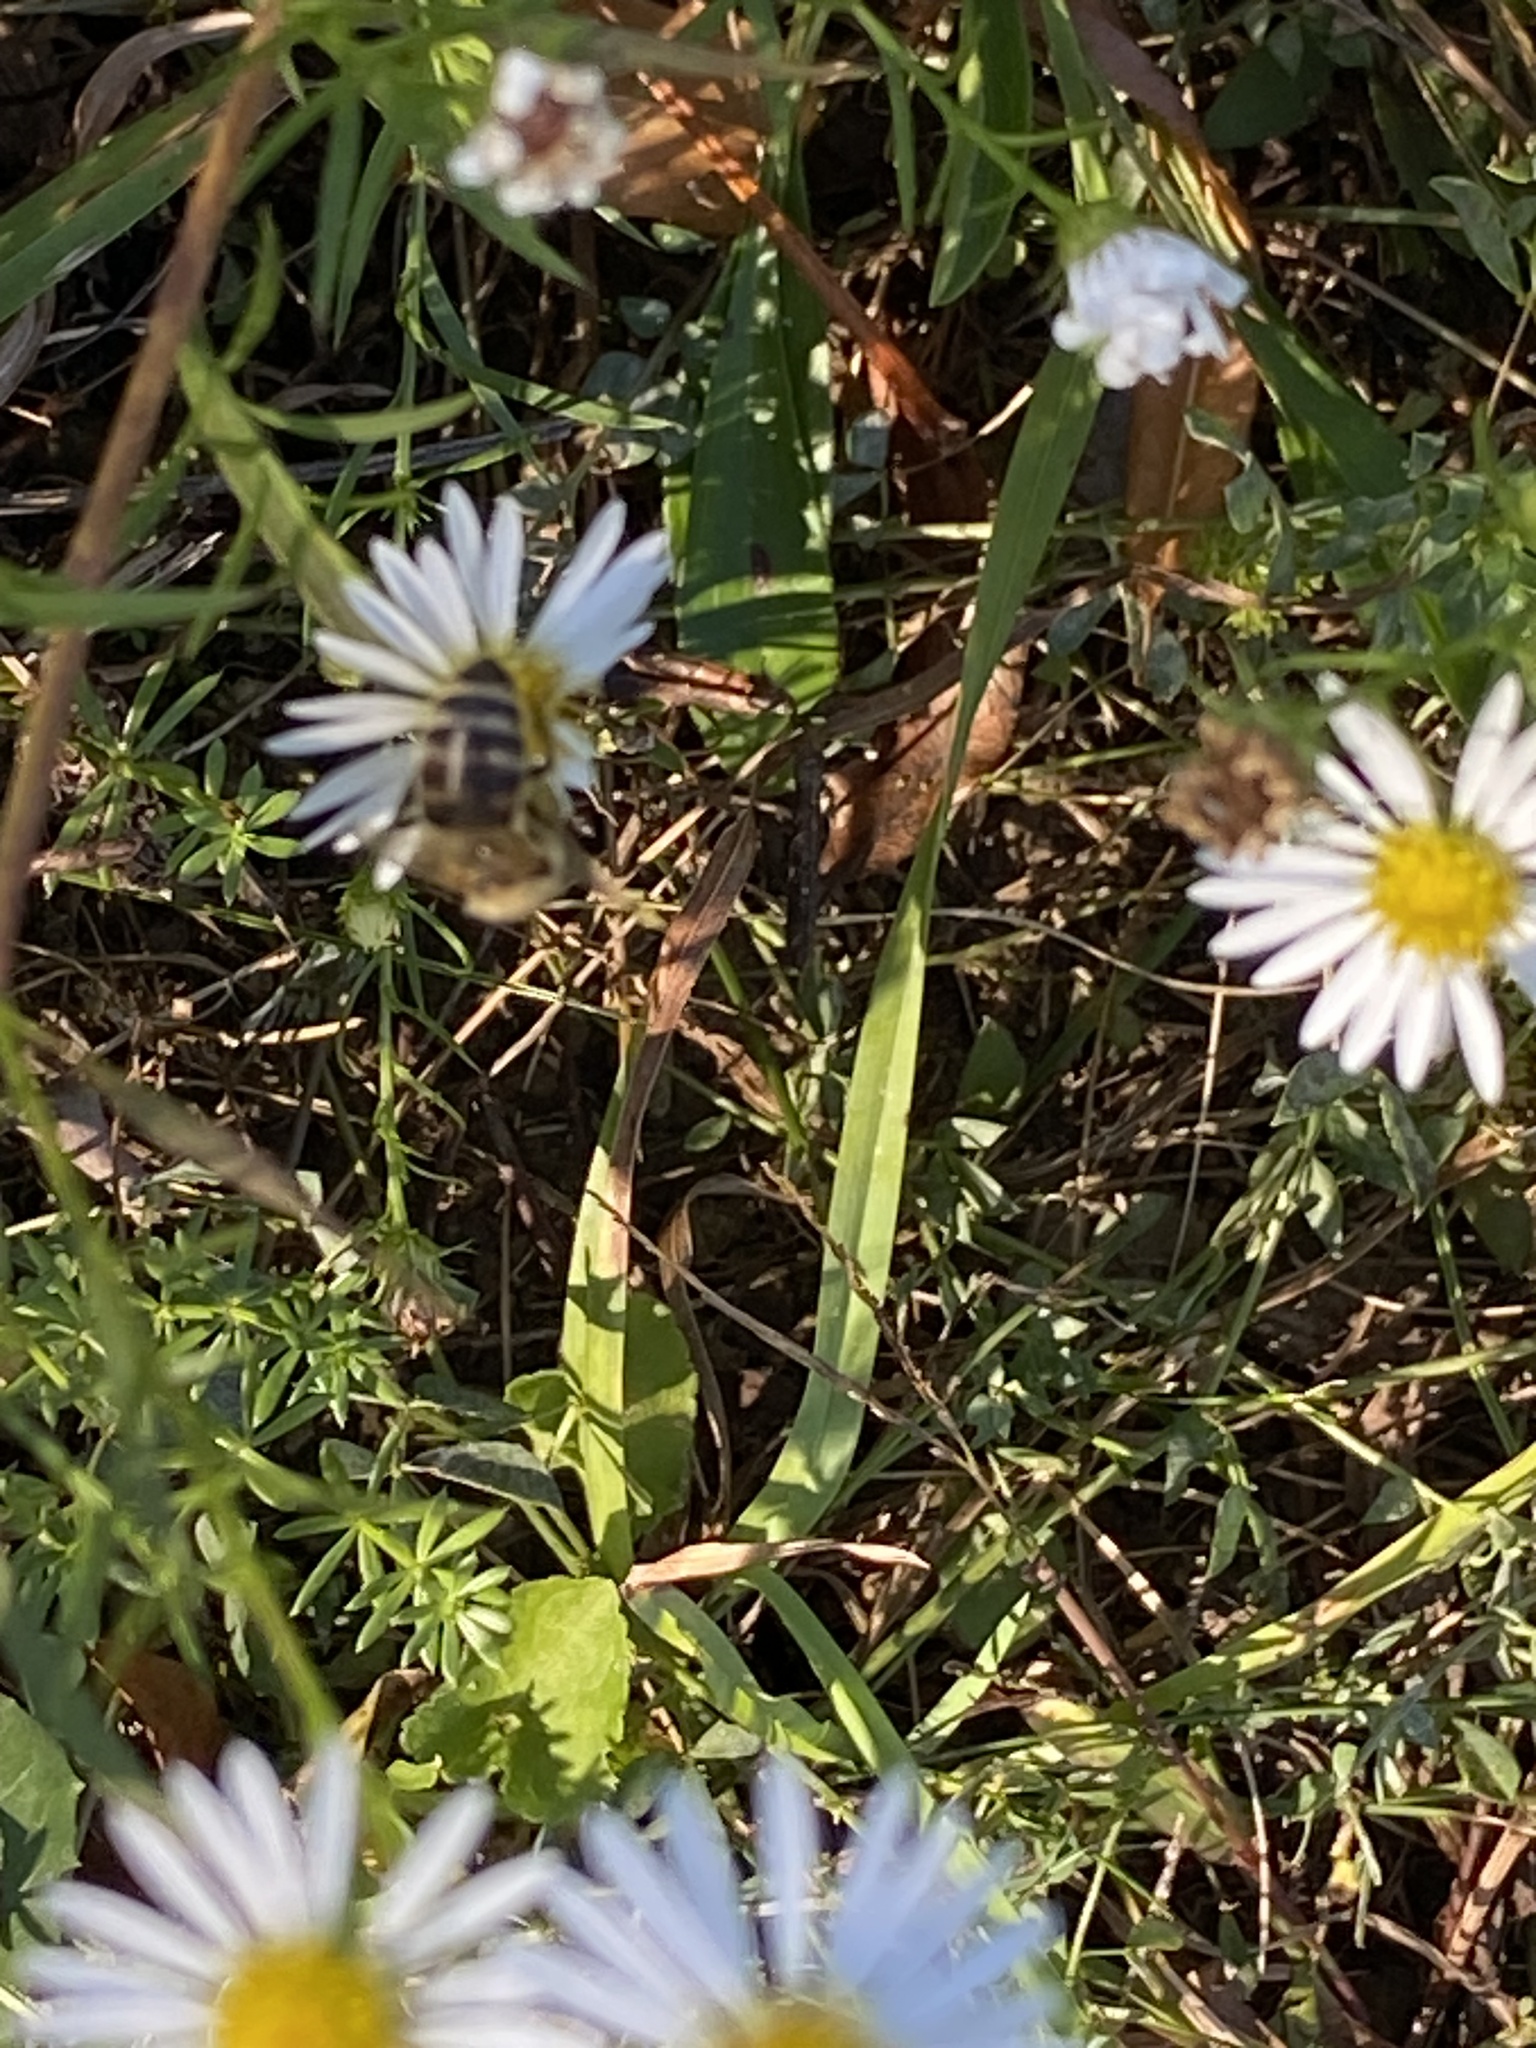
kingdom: Animalia
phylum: Arthropoda
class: Insecta
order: Hymenoptera
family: Apidae
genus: Apis
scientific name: Apis mellifera
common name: Honey bee
